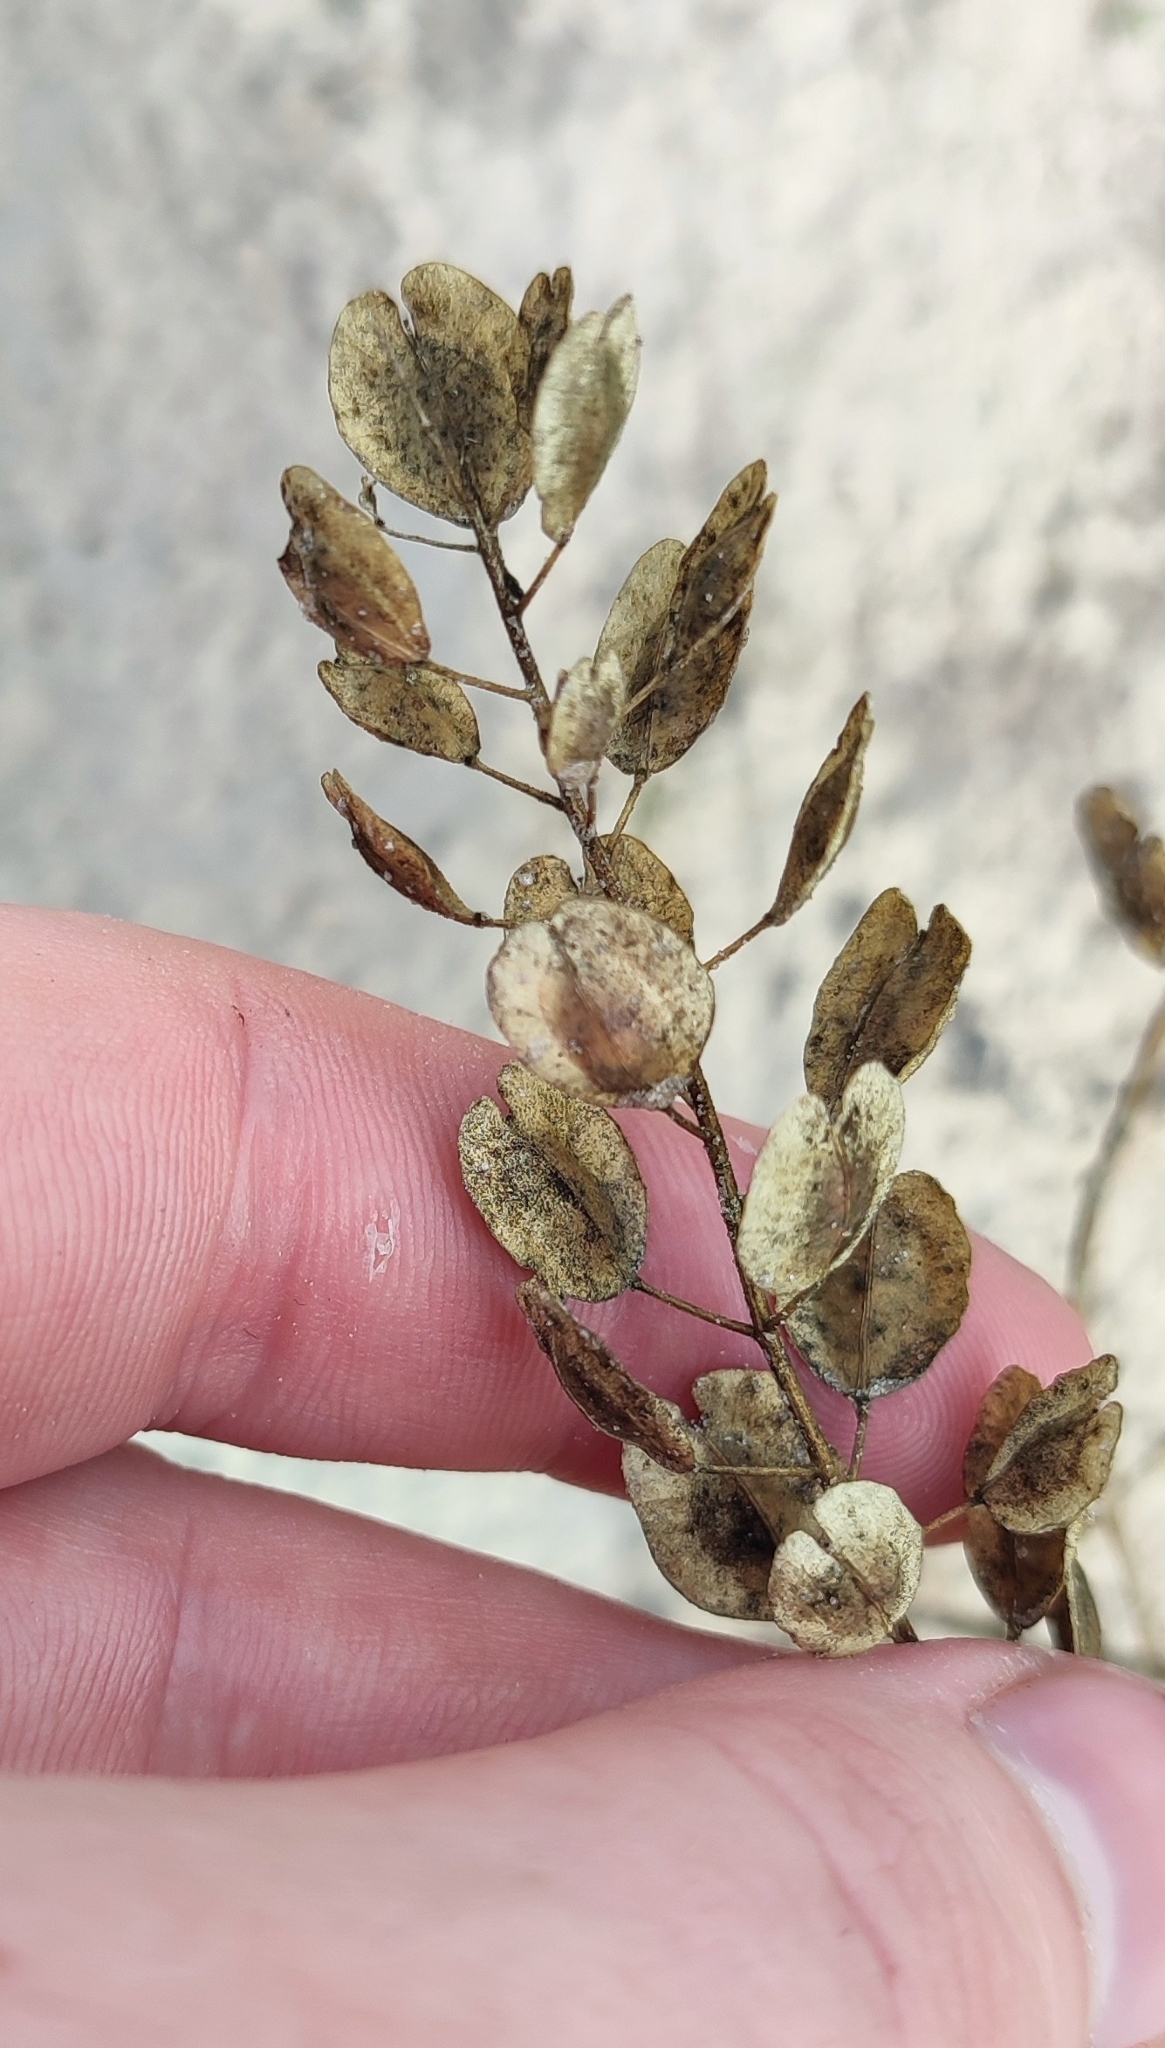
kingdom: Plantae
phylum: Tracheophyta
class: Magnoliopsida
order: Brassicales
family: Brassicaceae
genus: Thlaspi
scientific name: Thlaspi arvense
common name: Field pennycress
